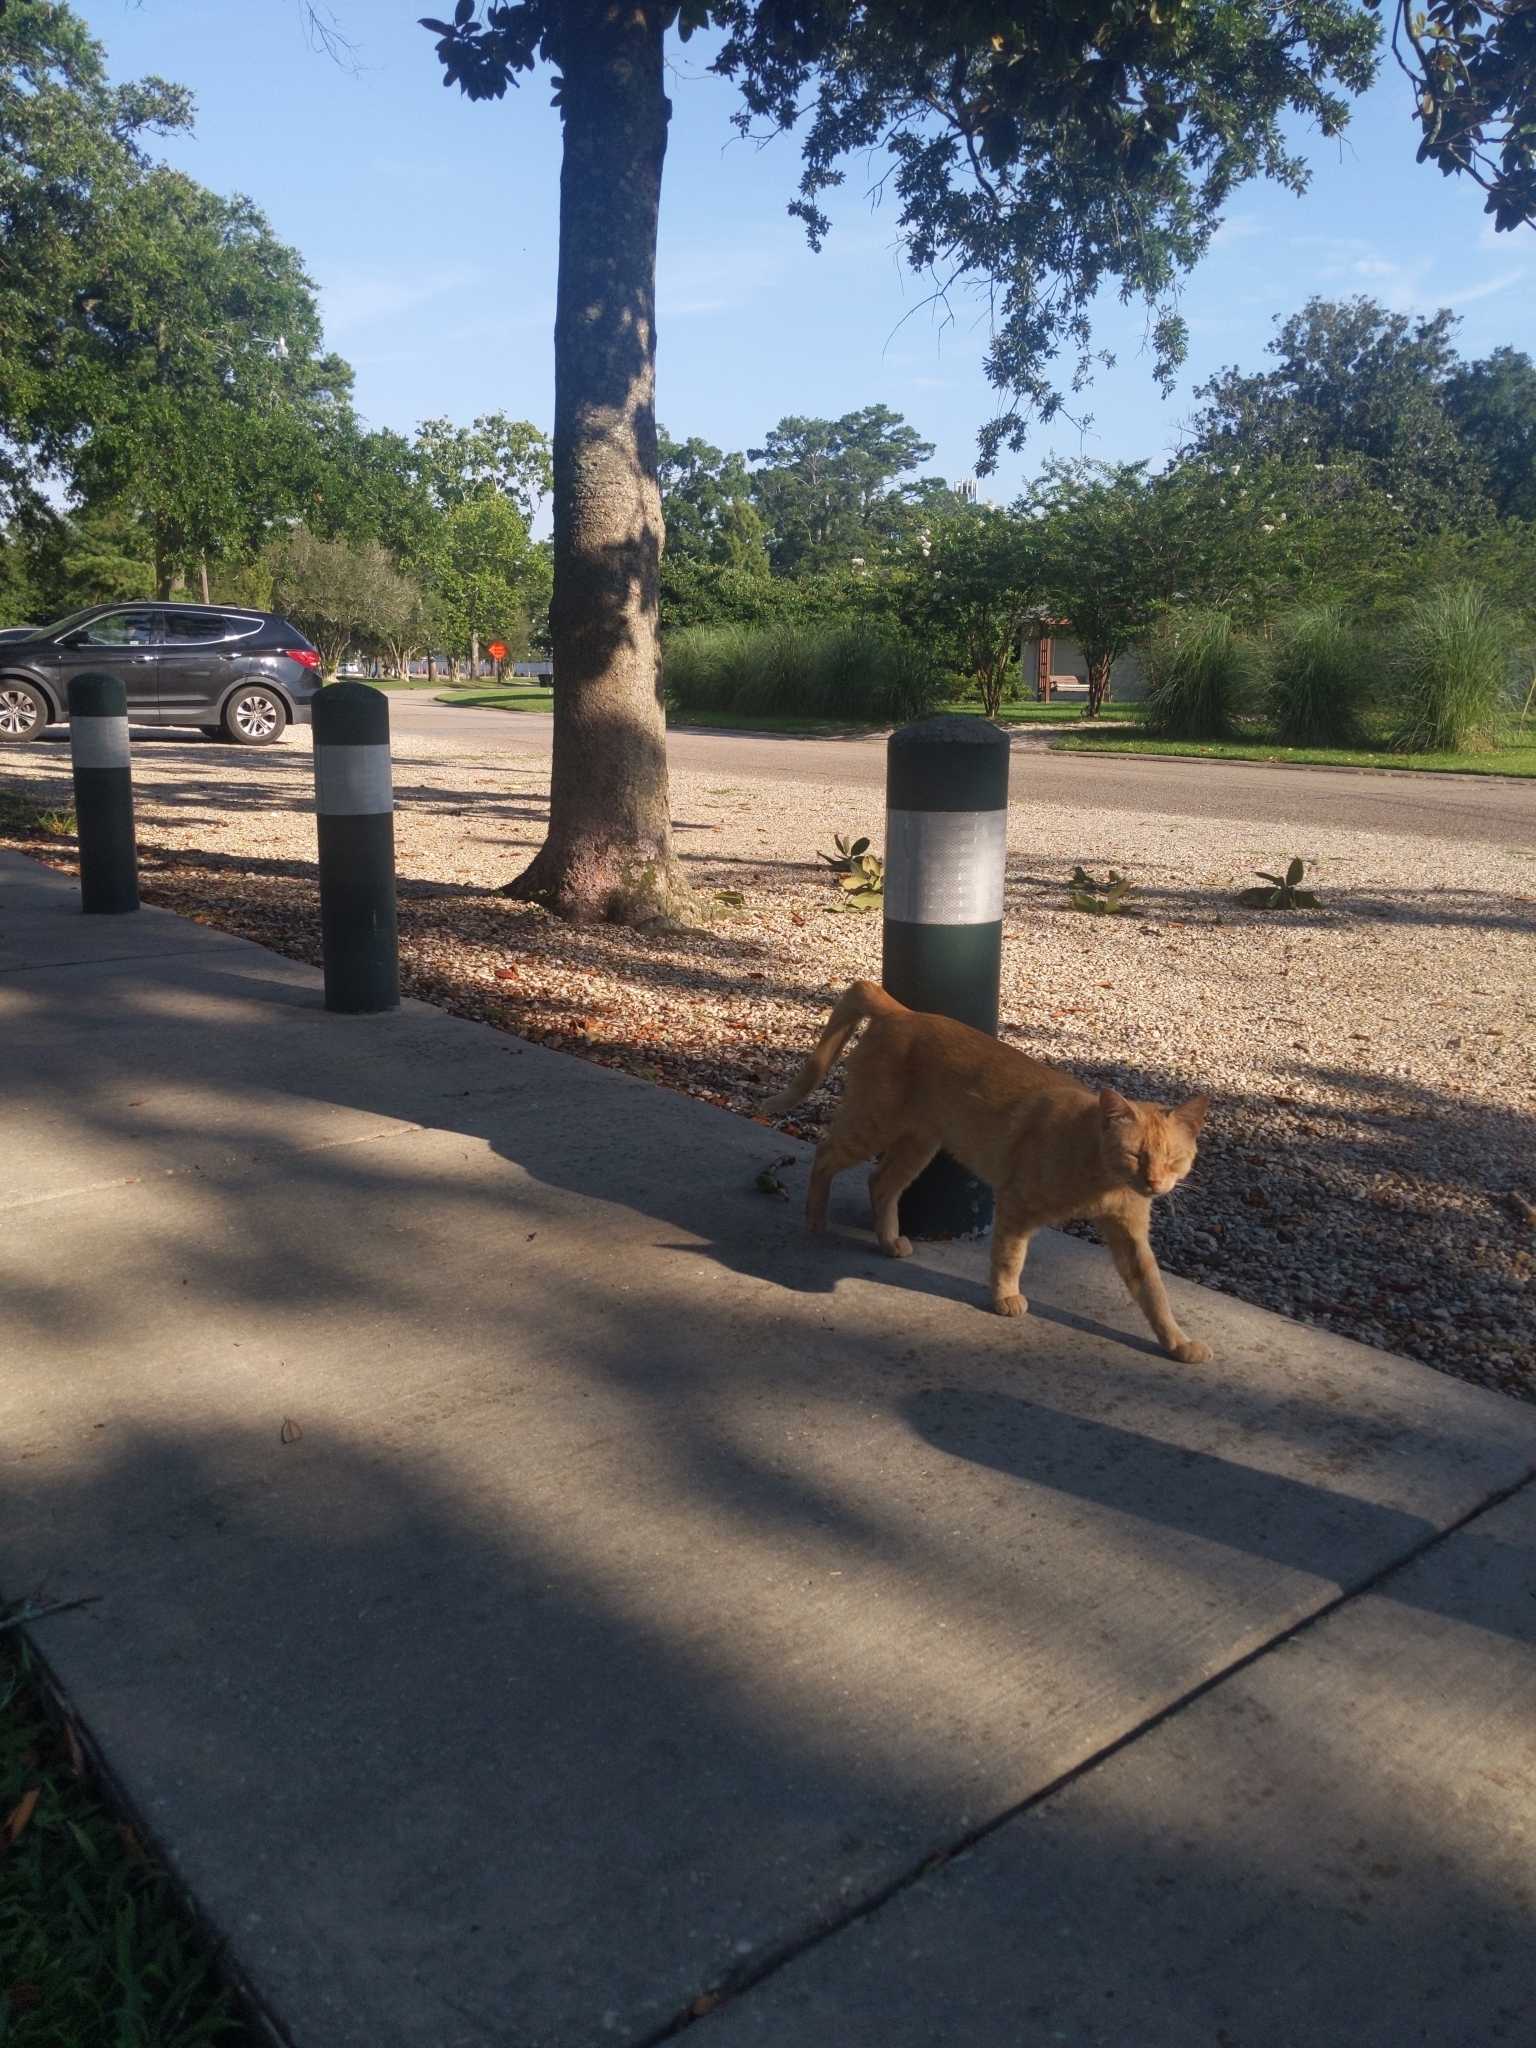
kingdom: Animalia
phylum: Chordata
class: Mammalia
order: Carnivora
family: Felidae
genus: Felis
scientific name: Felis catus
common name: Domestic cat
